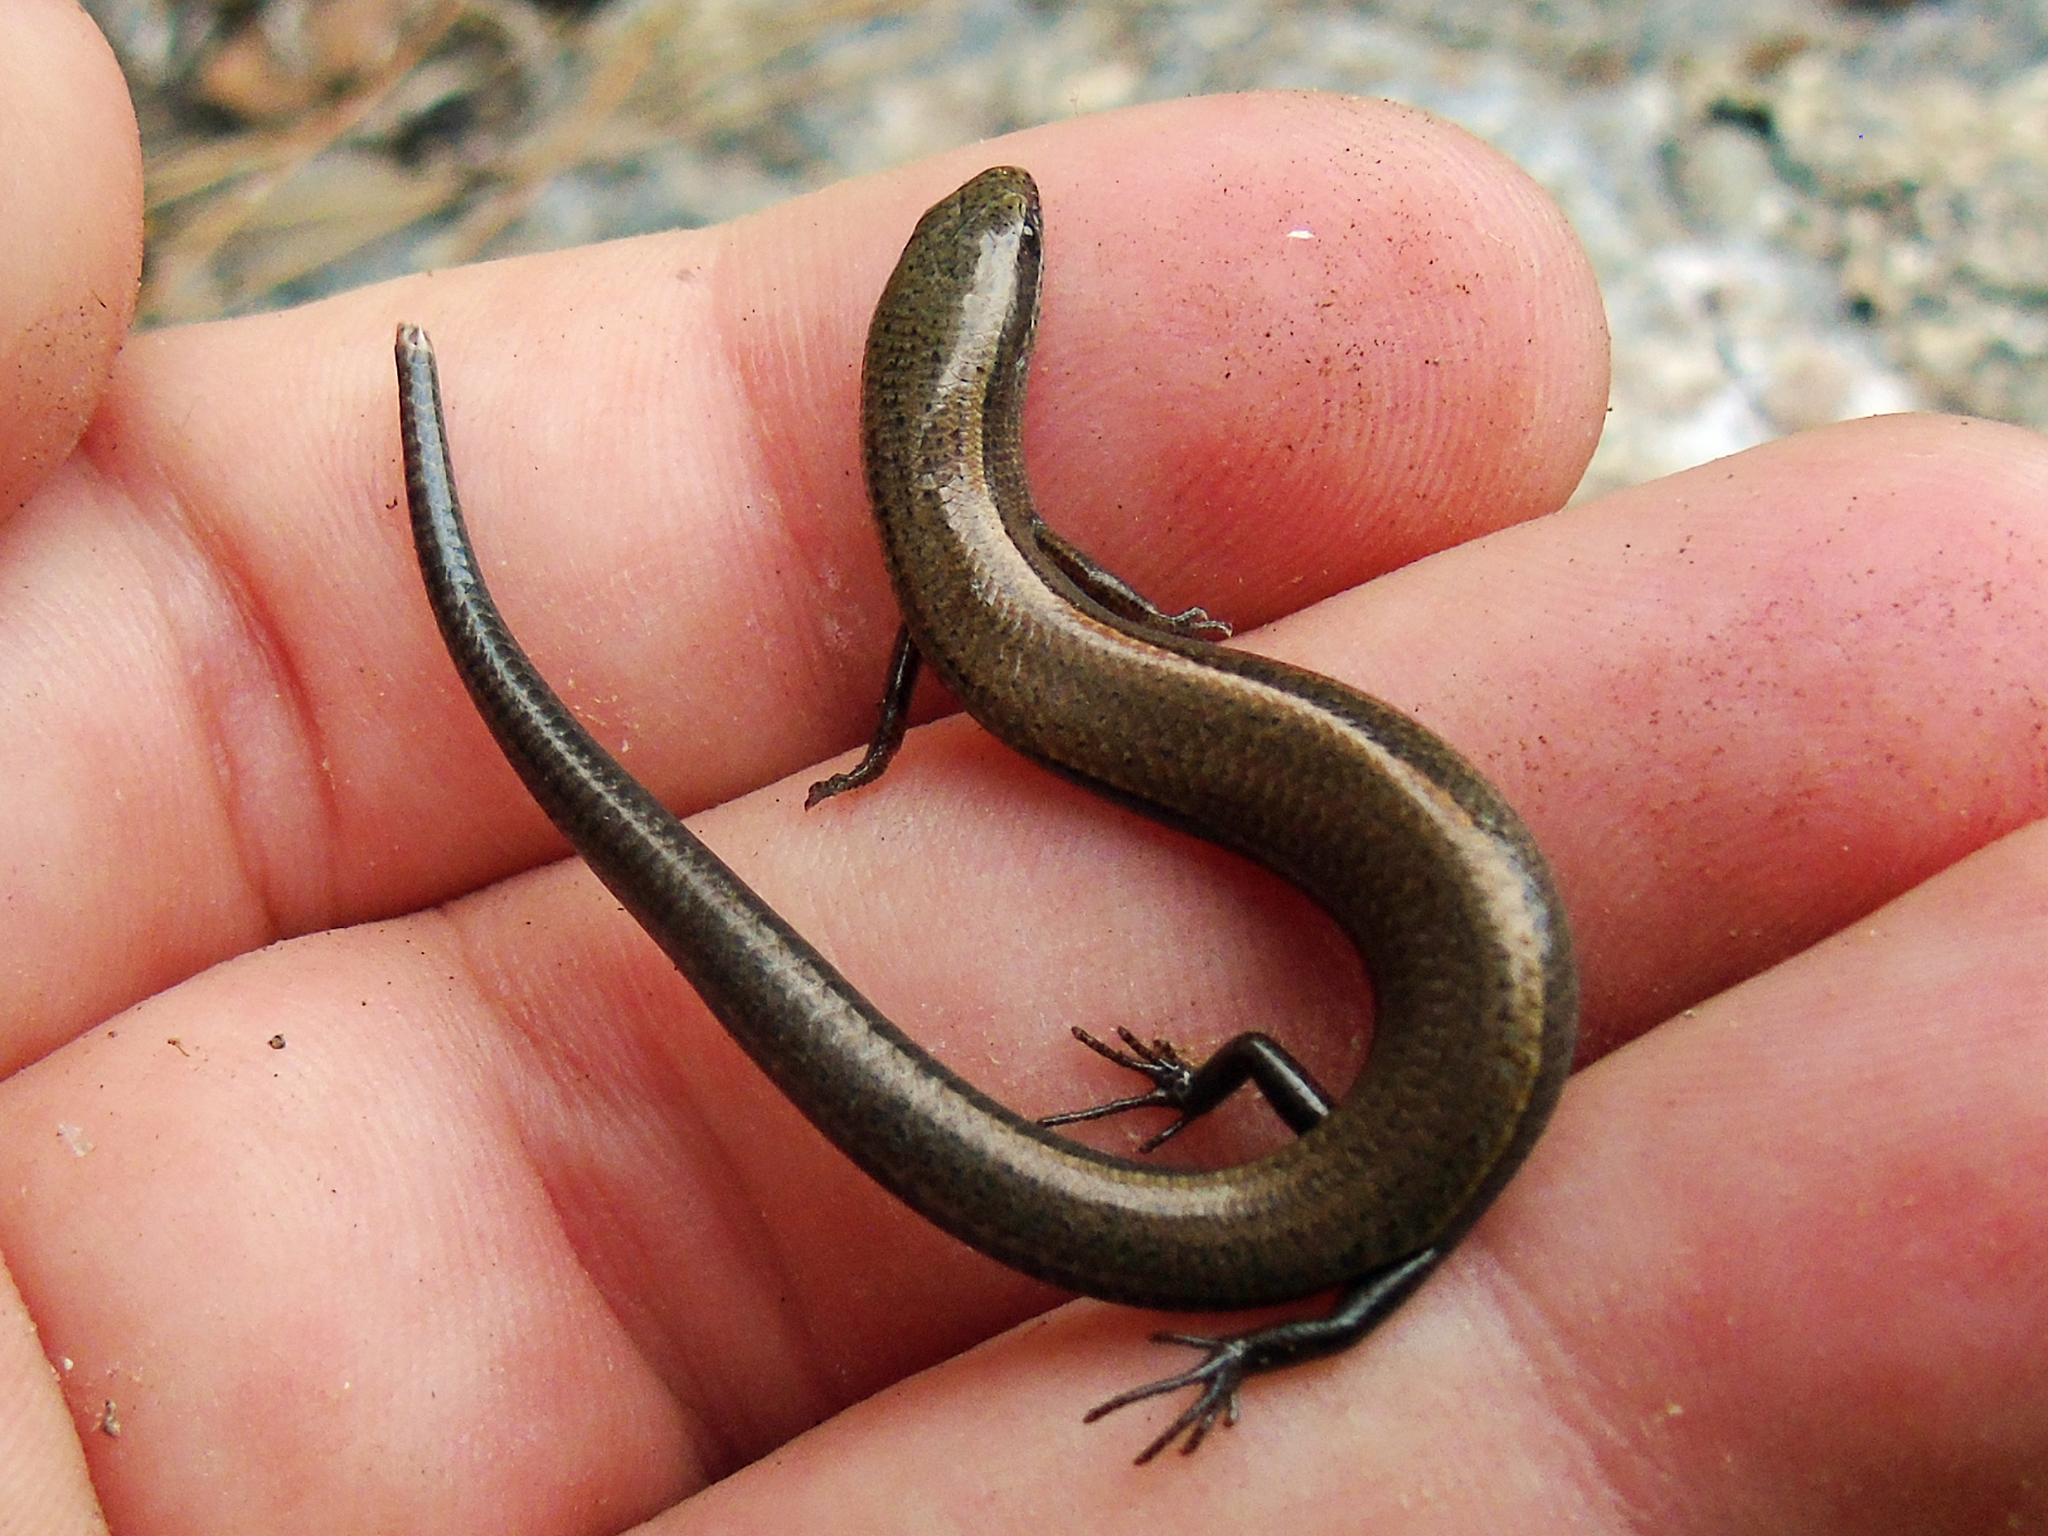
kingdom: Animalia
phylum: Chordata
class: Squamata
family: Scincidae
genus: Ablepharus
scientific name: Ablepharus anatolicus
